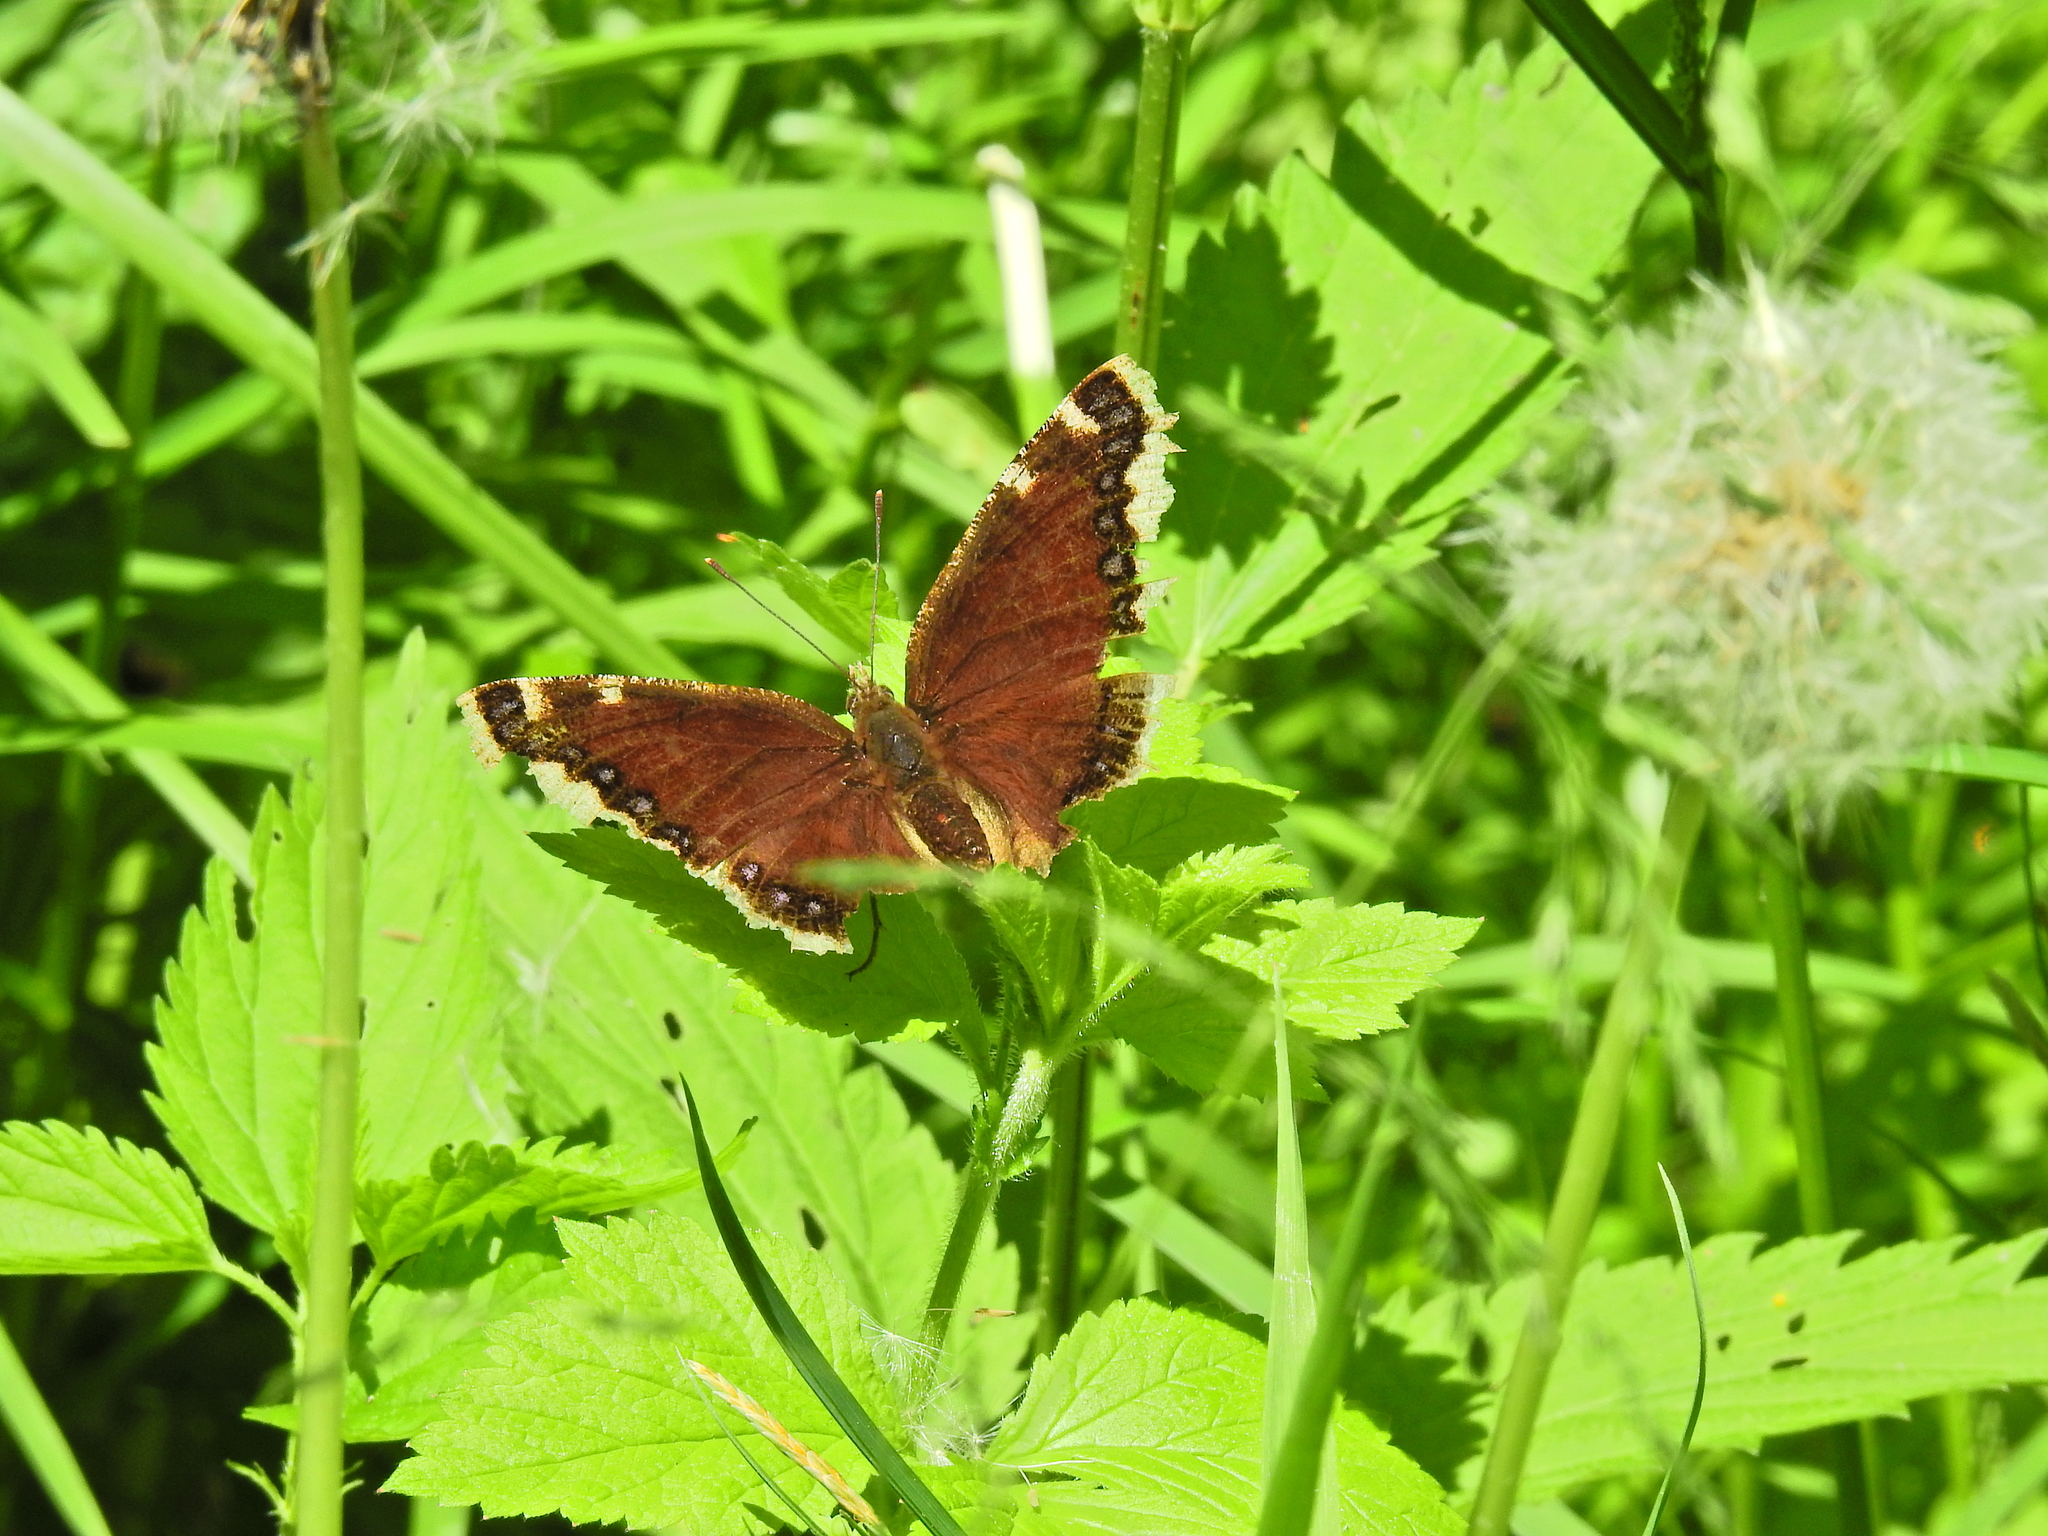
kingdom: Animalia
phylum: Arthropoda
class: Insecta
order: Lepidoptera
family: Nymphalidae
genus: Nymphalis
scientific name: Nymphalis antiopa
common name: Camberwell beauty
